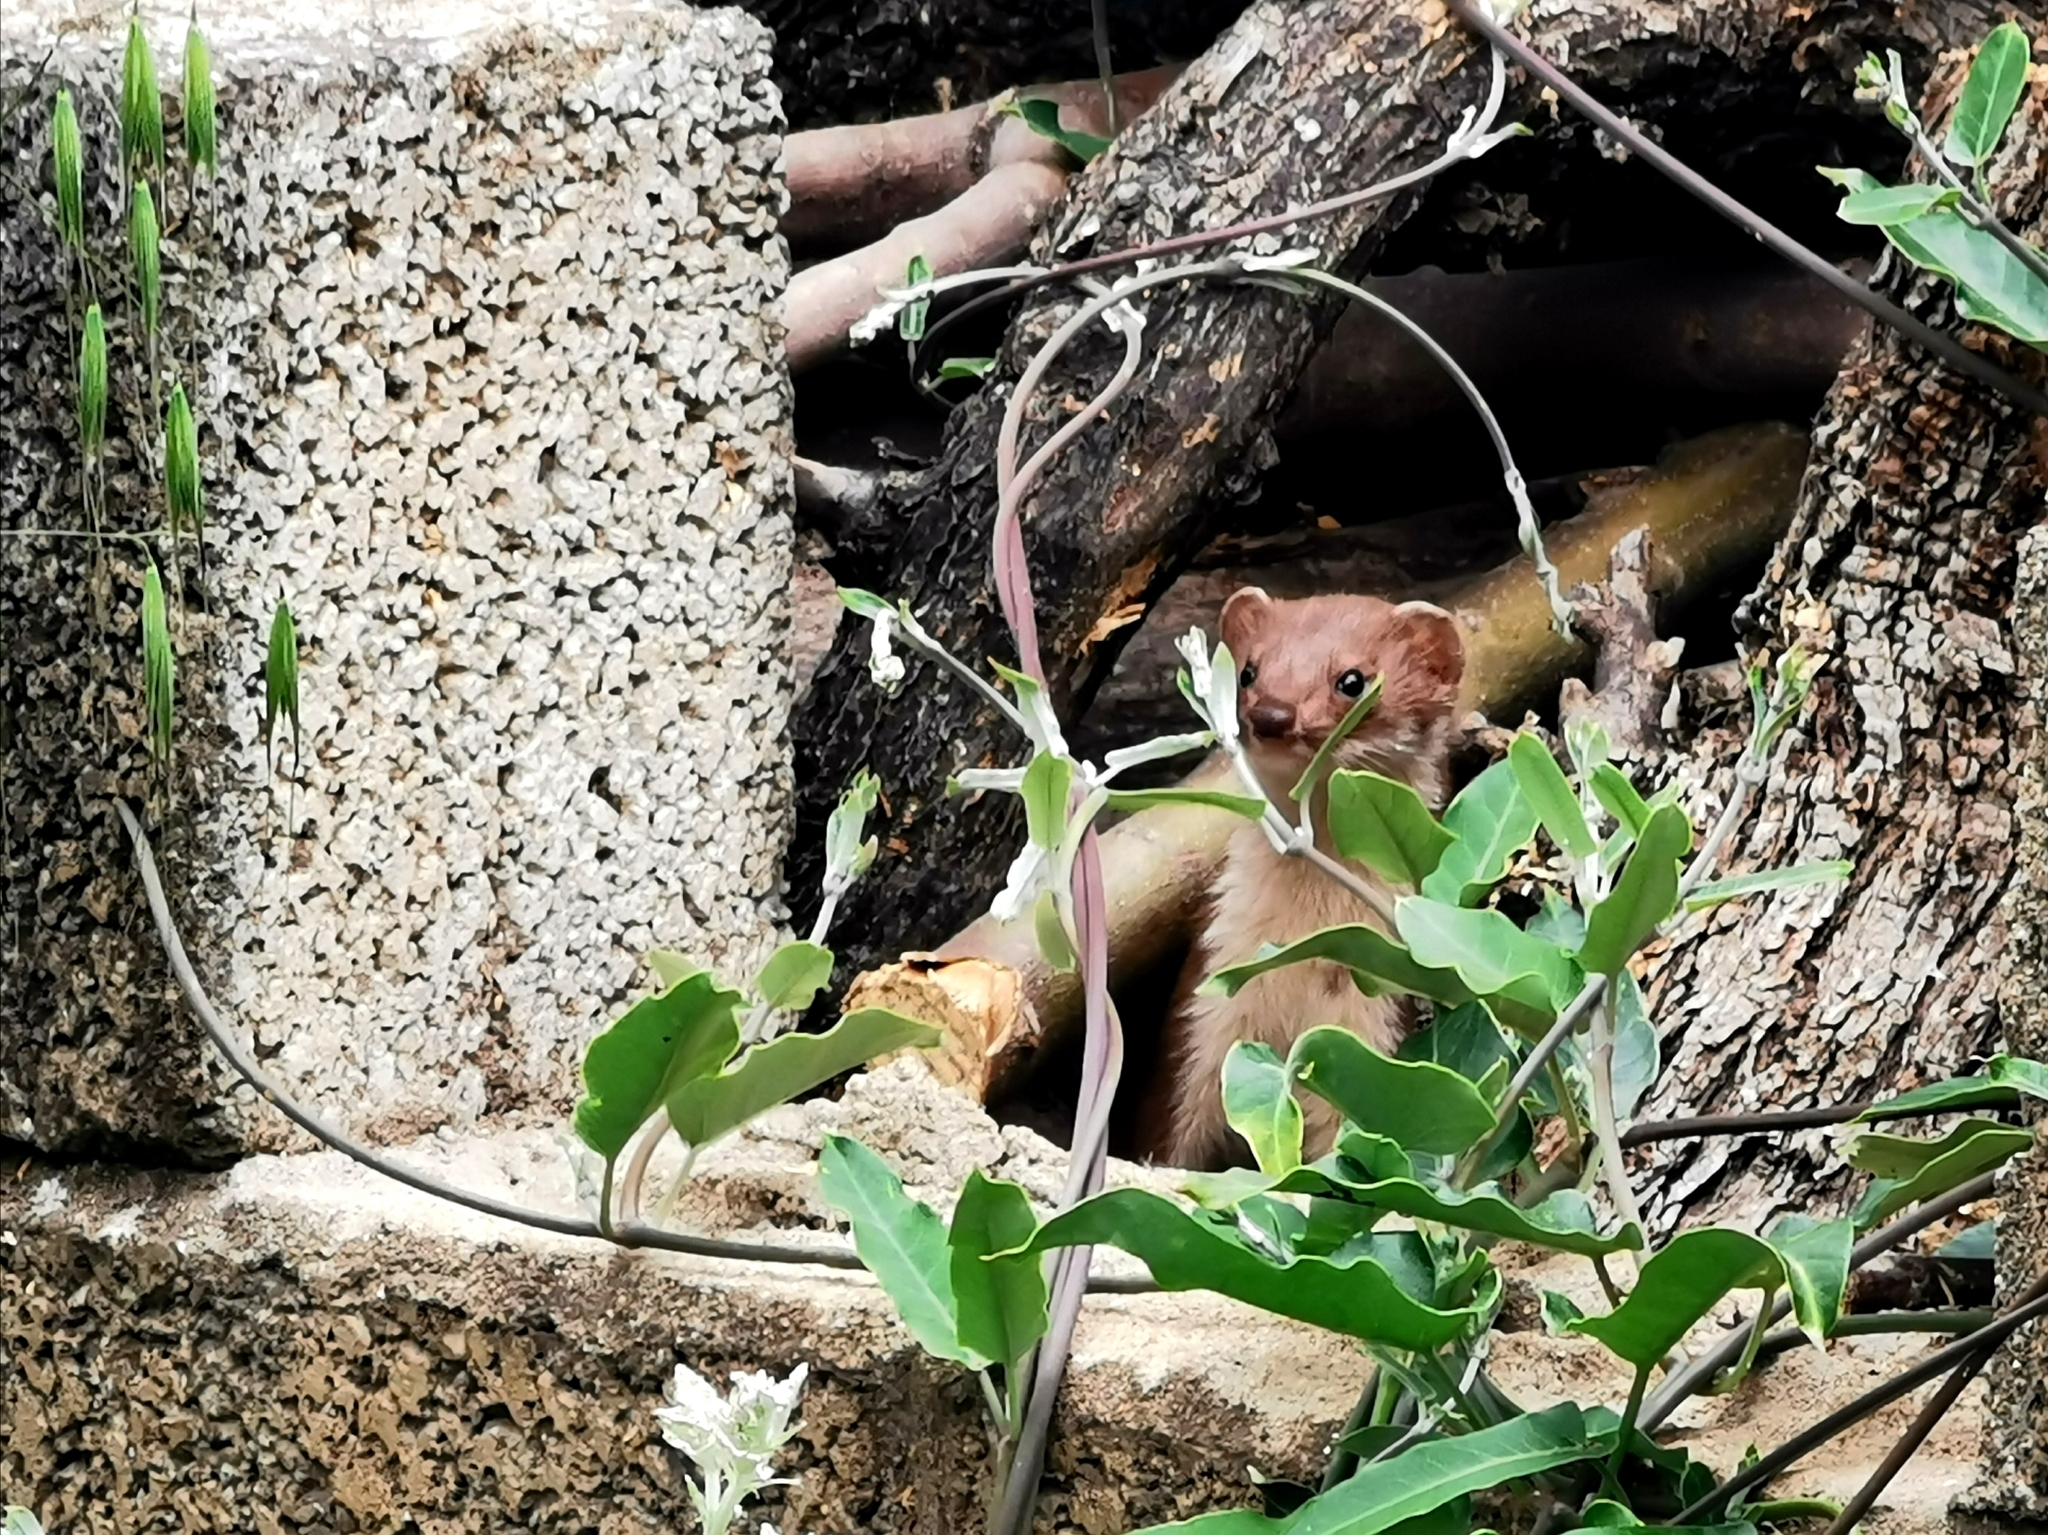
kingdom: Animalia
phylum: Chordata
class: Mammalia
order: Carnivora
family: Mustelidae
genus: Mustela
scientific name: Mustela nivalis
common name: Least weasel
